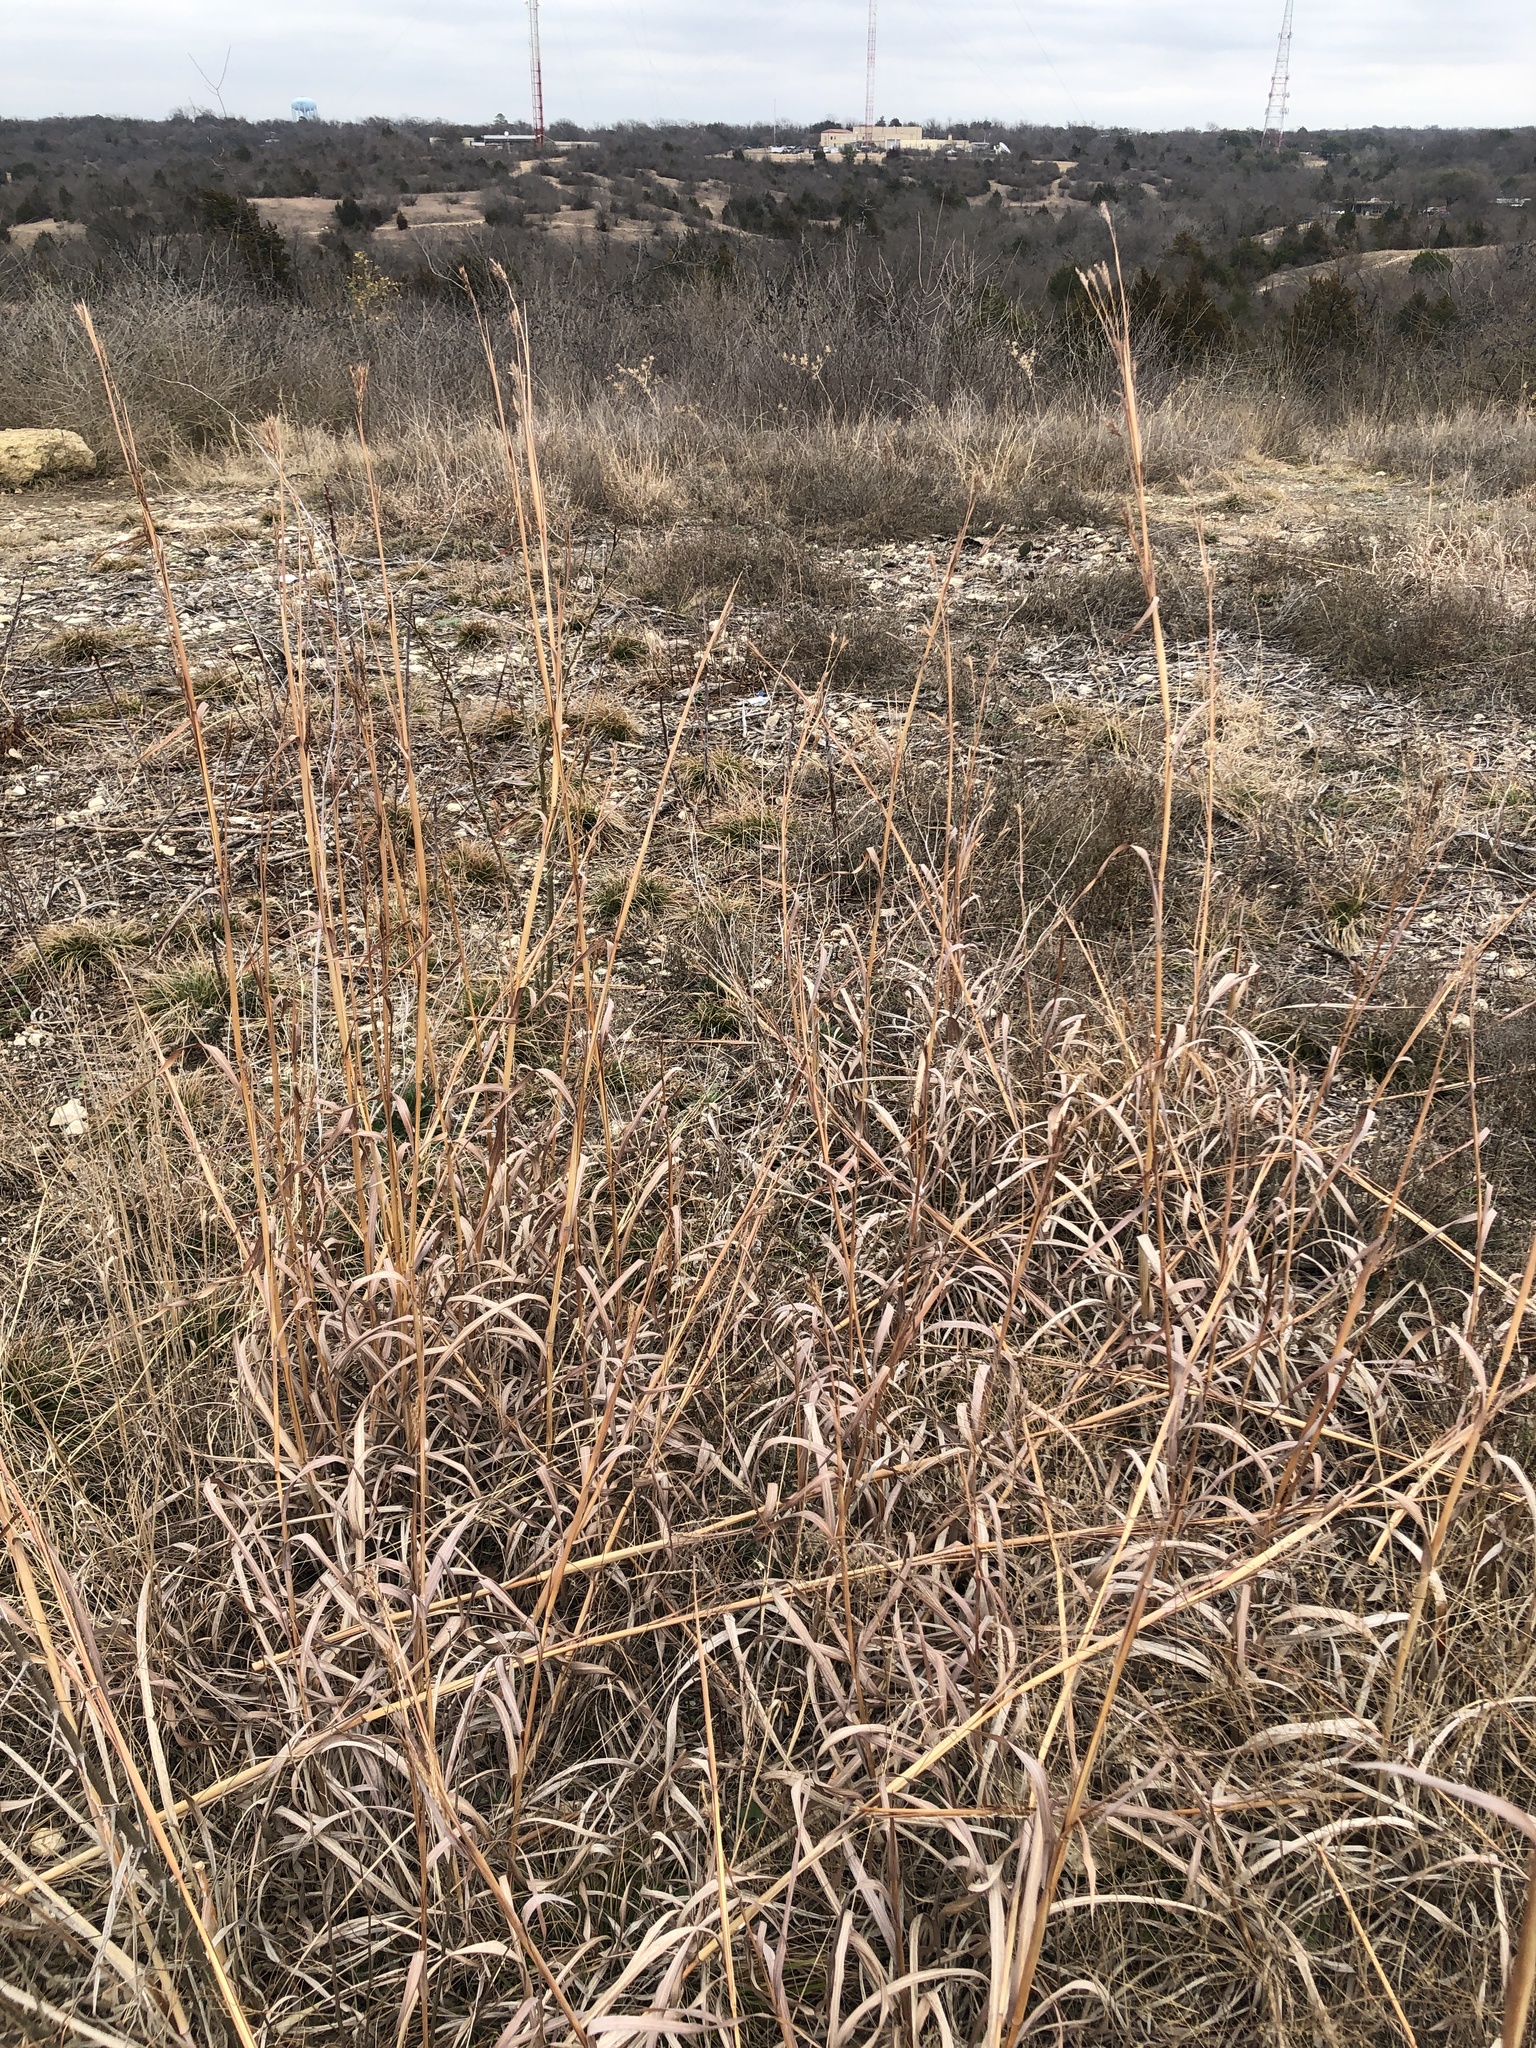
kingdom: Plantae
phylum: Tracheophyta
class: Liliopsida
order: Poales
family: Poaceae
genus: Andropogon
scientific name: Andropogon gerardi
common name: Big bluestem
